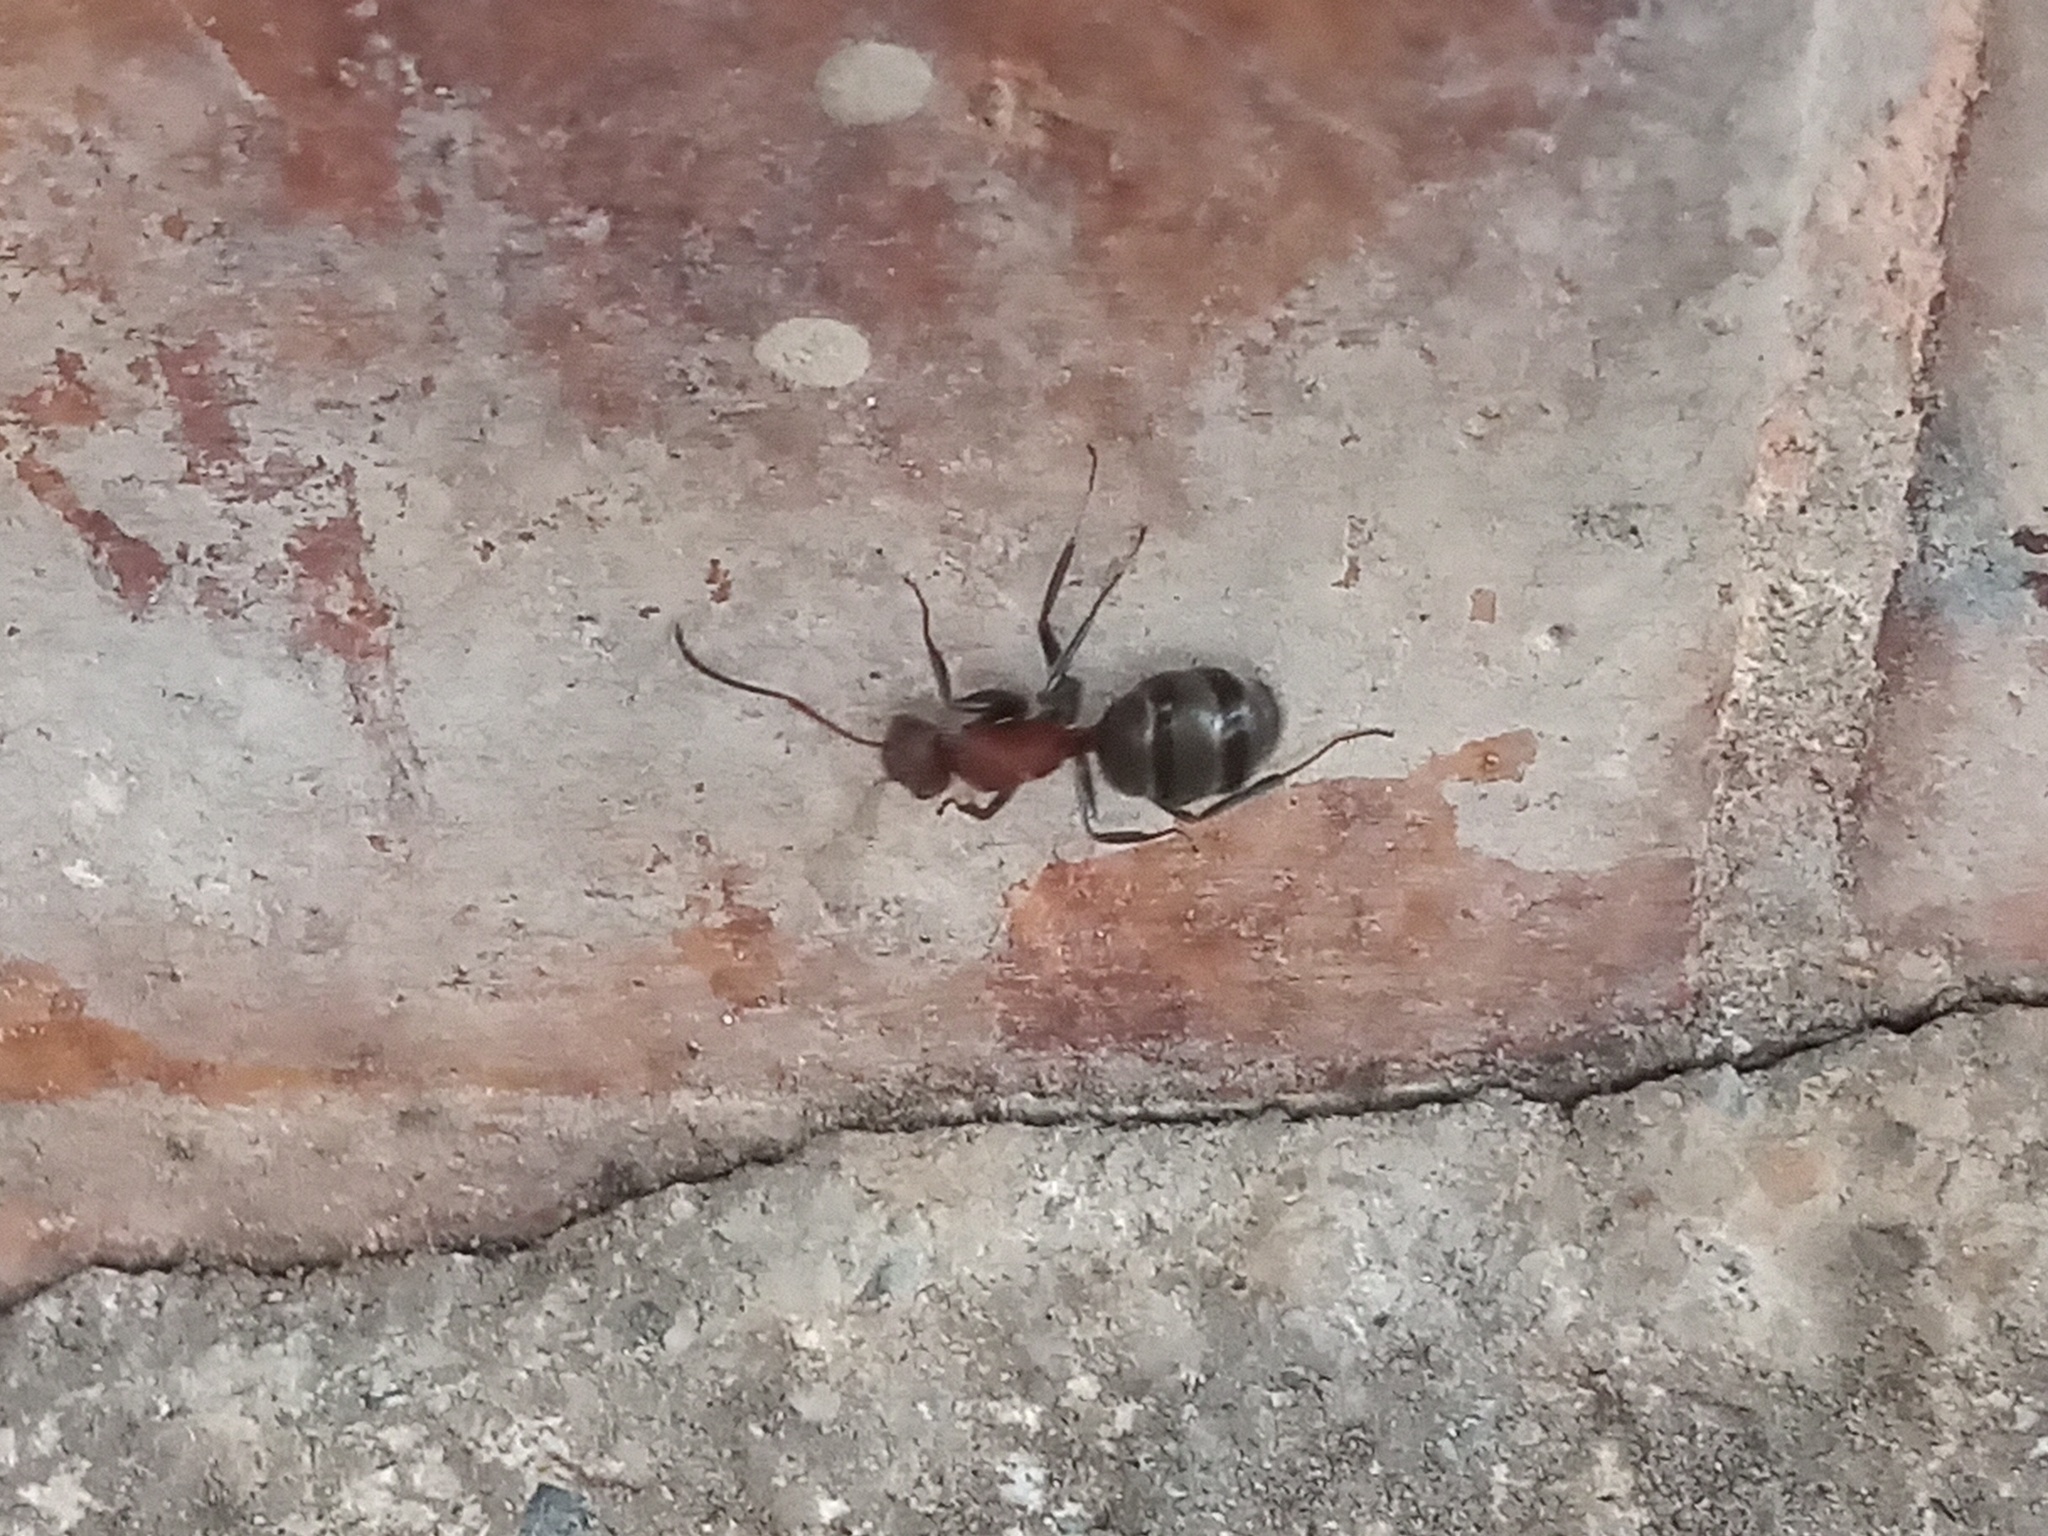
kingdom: Animalia
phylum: Arthropoda
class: Insecta
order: Hymenoptera
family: Formicidae
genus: Camponotus
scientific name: Camponotus planatus
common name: Compact carpenter ant
